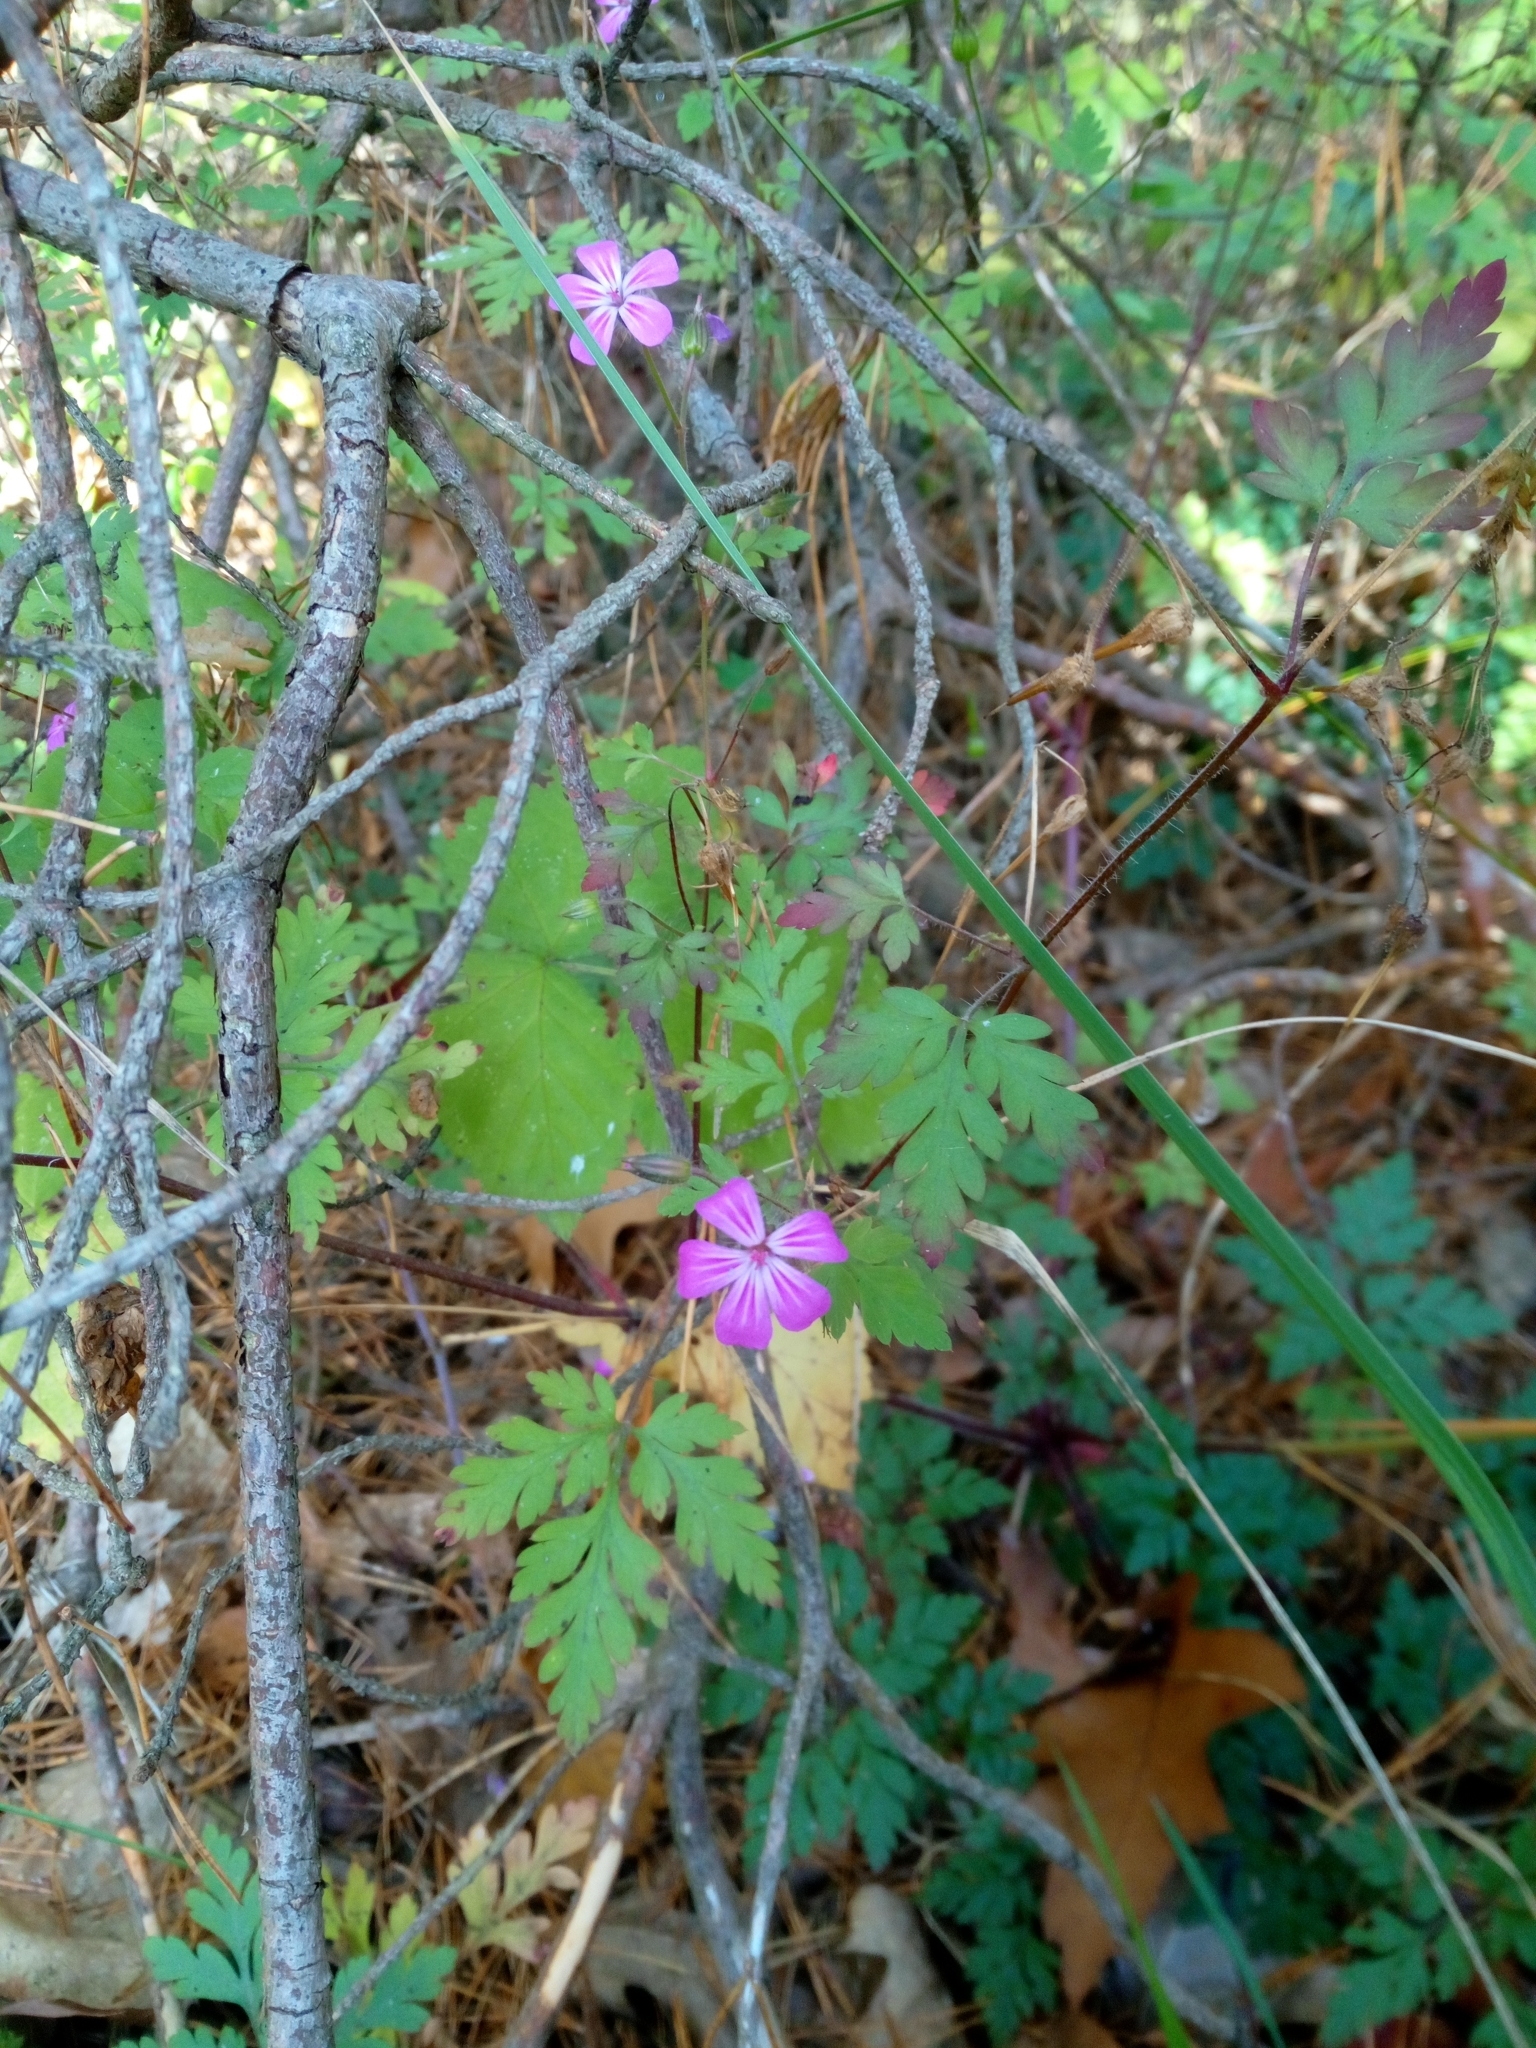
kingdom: Plantae
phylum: Tracheophyta
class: Magnoliopsida
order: Geraniales
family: Geraniaceae
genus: Geranium
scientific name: Geranium robertianum
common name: Herb-robert
